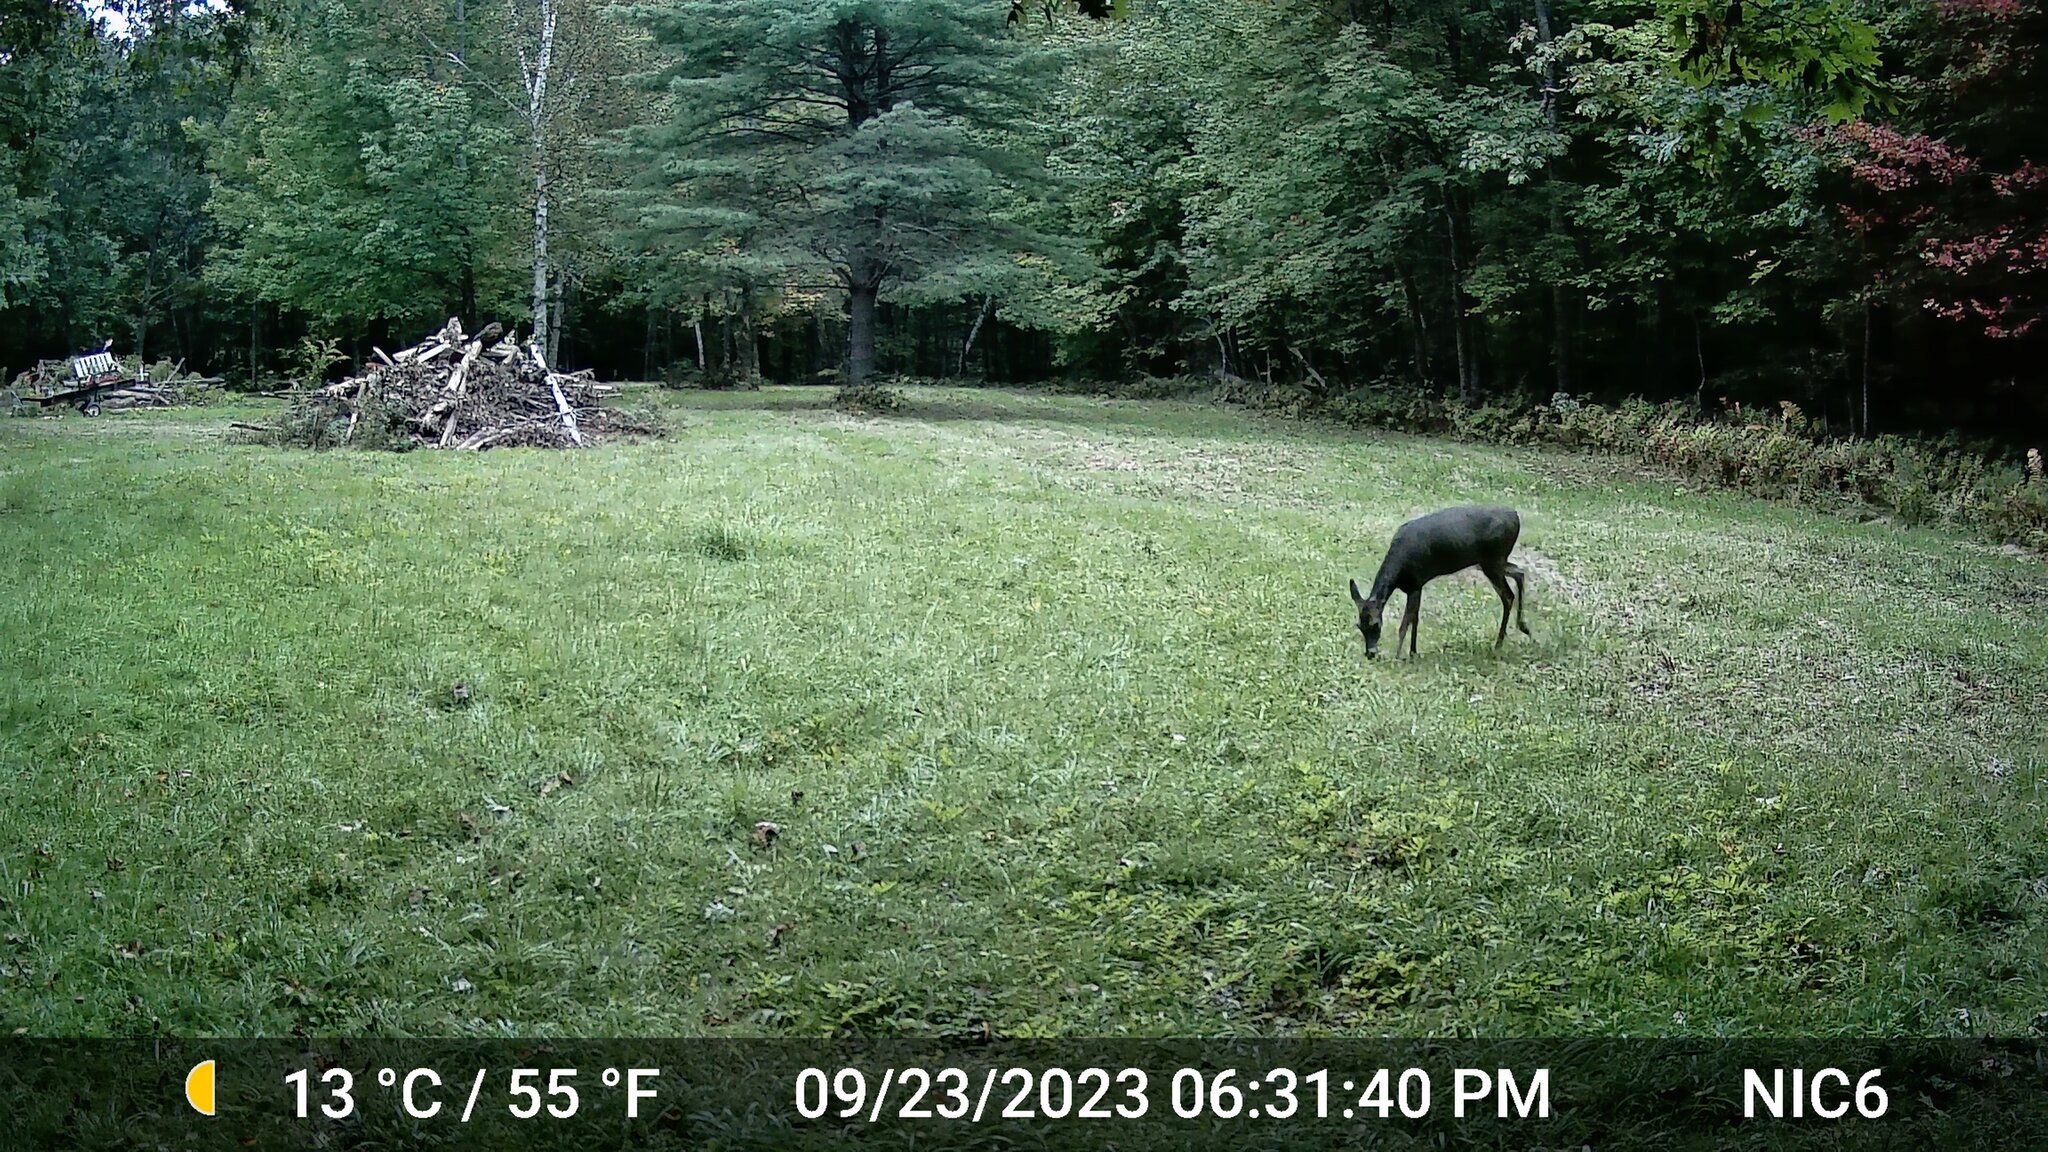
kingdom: Animalia
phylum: Chordata
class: Mammalia
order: Artiodactyla
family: Cervidae
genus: Odocoileus
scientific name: Odocoileus virginianus
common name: White-tailed deer
